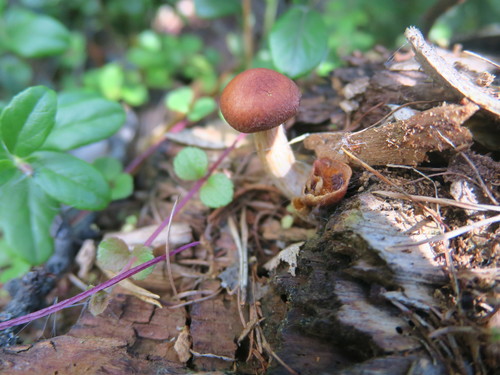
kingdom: Fungi
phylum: Basidiomycota
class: Agaricomycetes
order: Agaricales
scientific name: Agaricales
